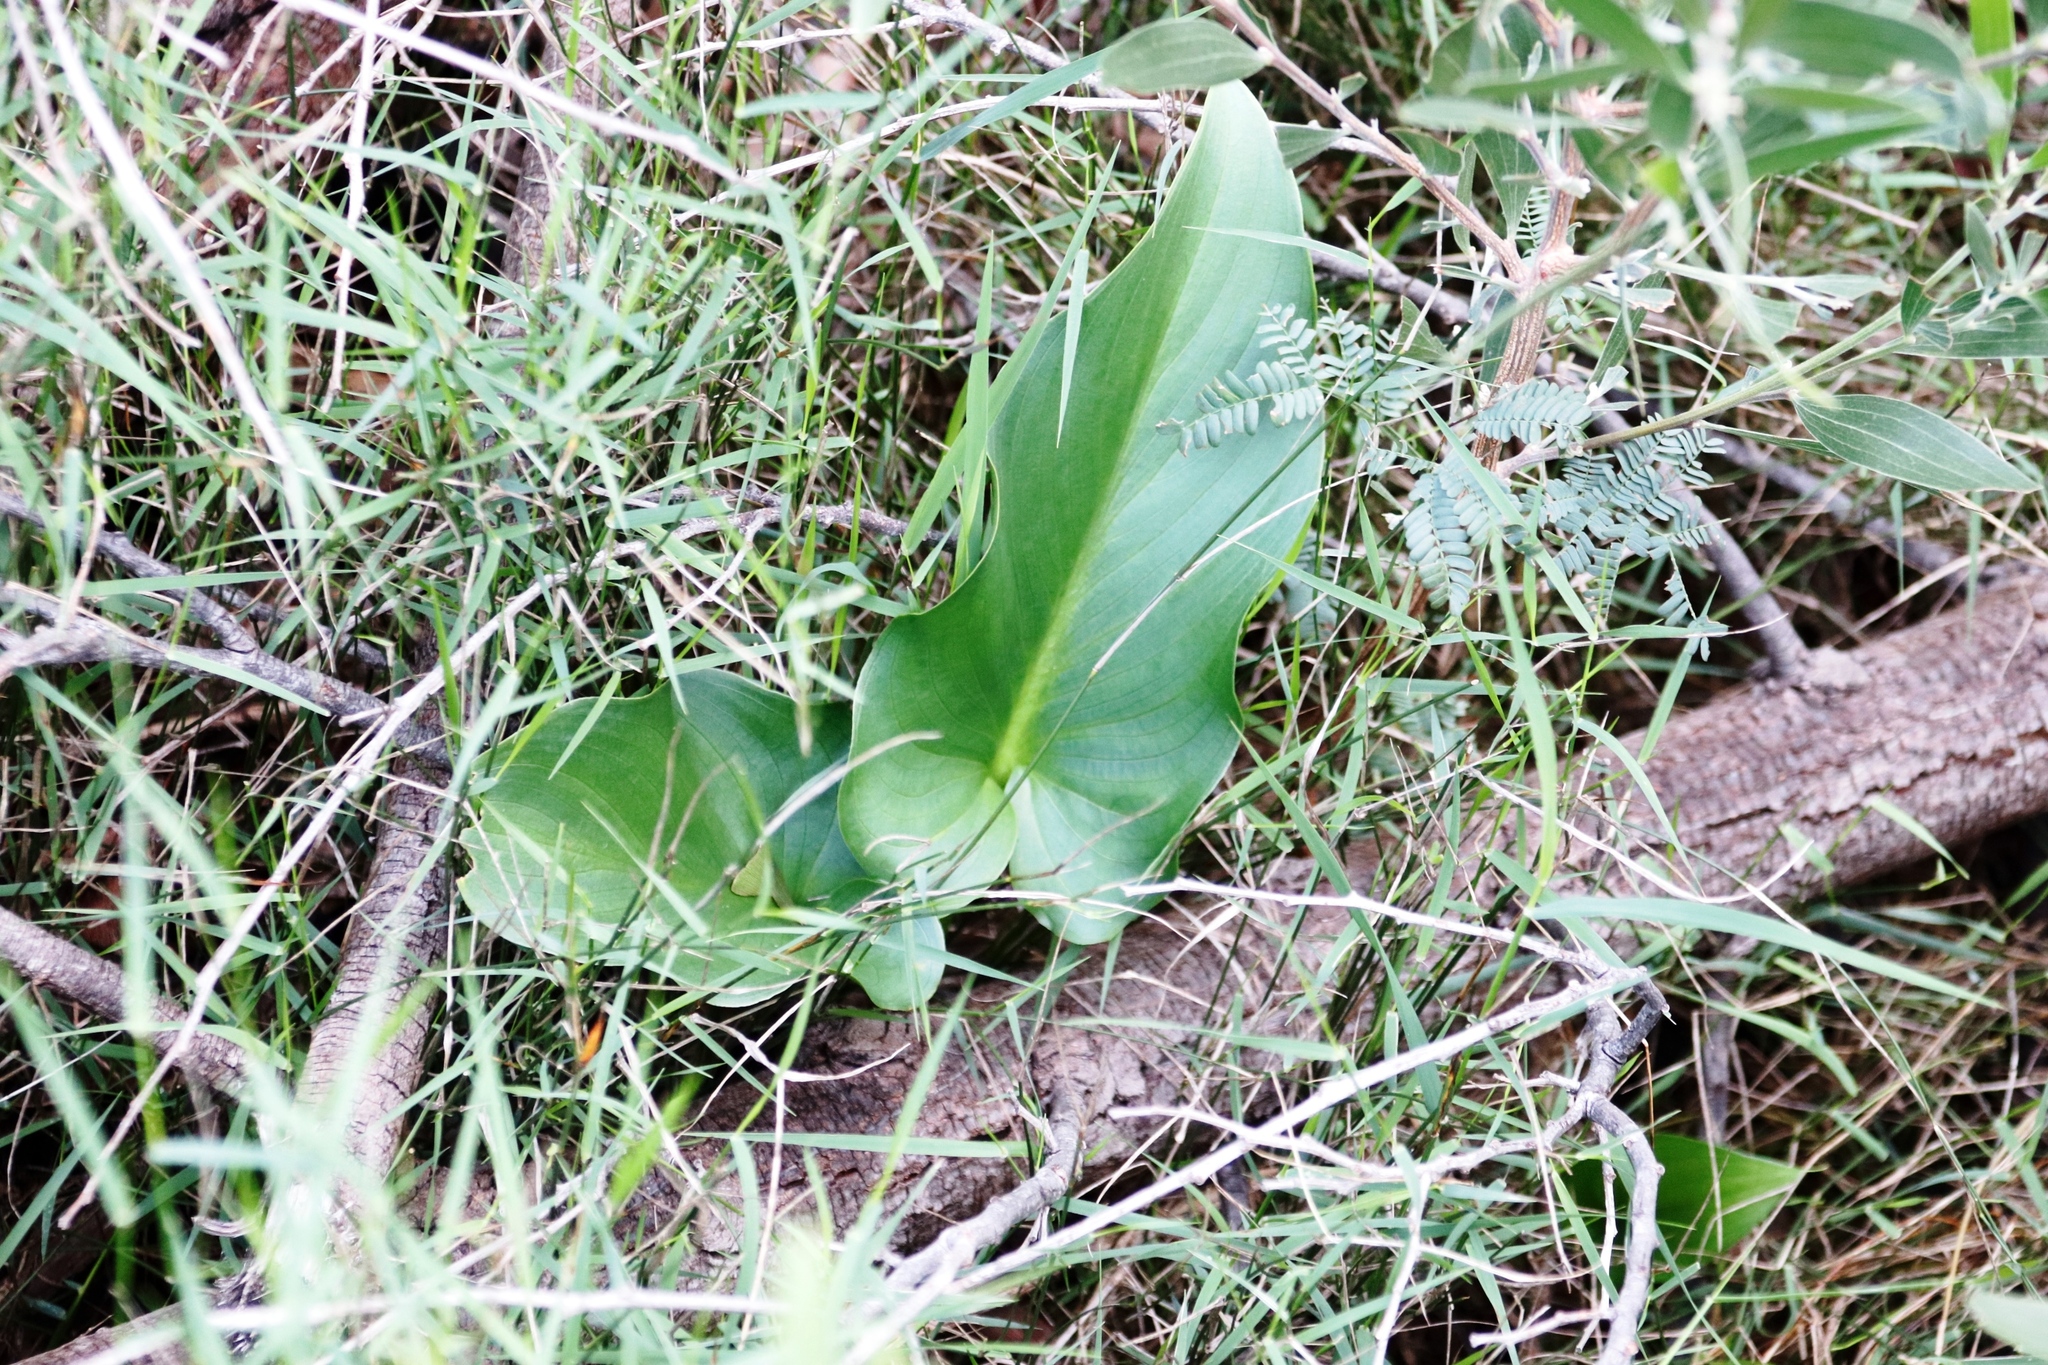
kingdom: Plantae
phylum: Tracheophyta
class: Liliopsida
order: Alismatales
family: Araceae
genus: Zantedeschia
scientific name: Zantedeschia aethiopica
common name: Altar-lily
